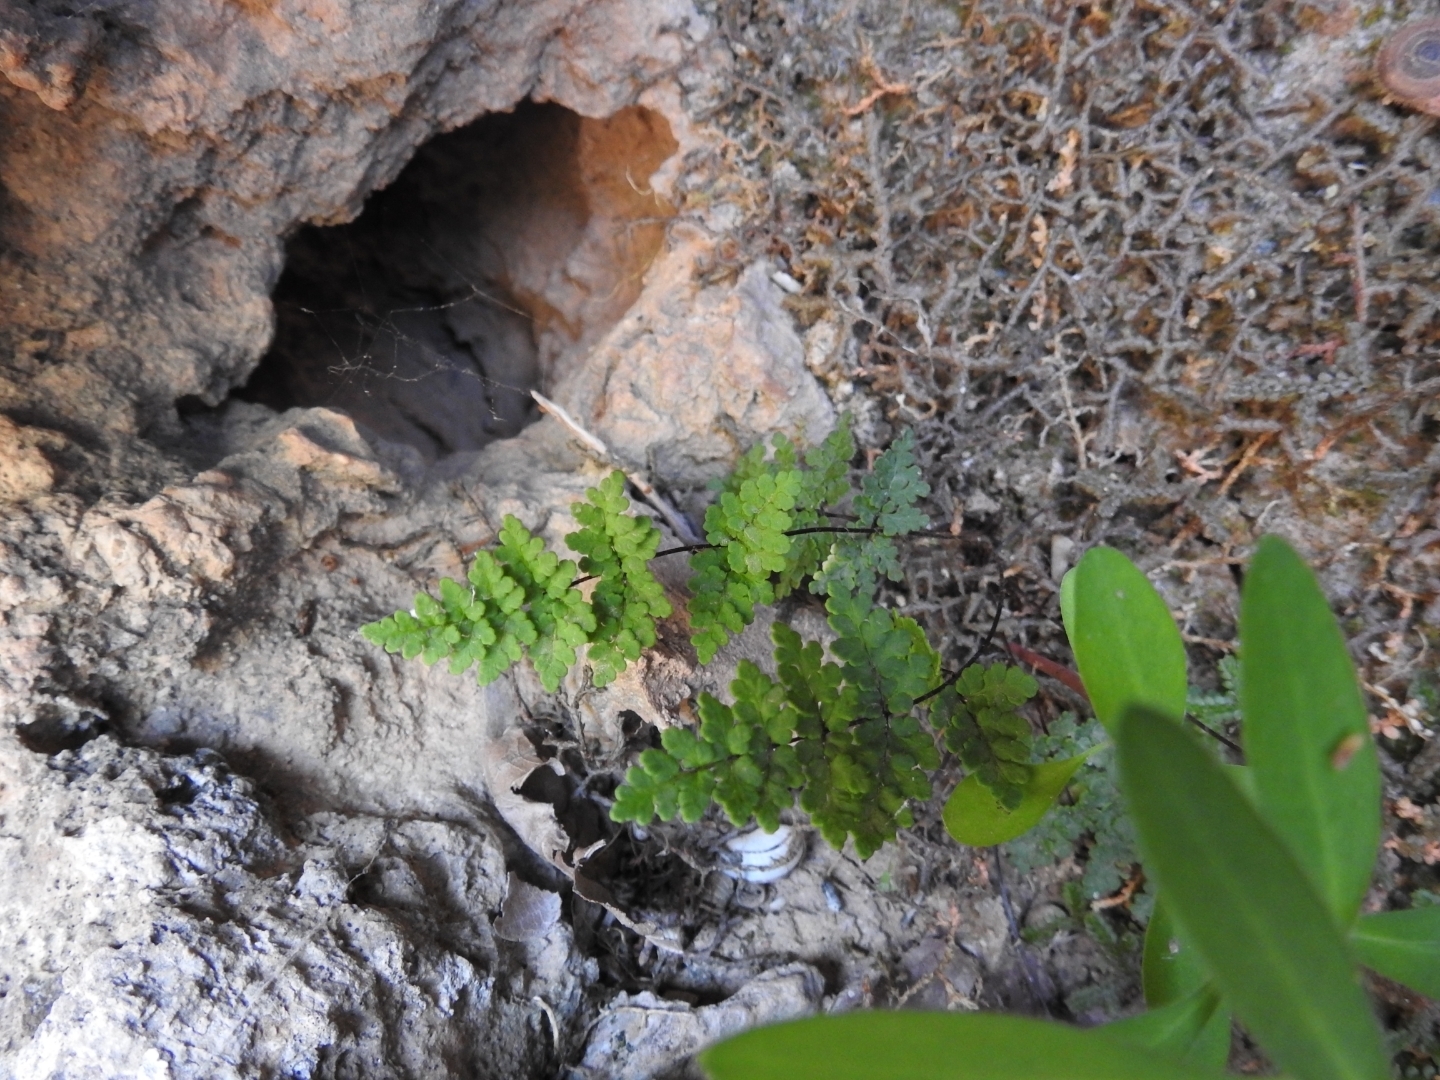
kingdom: Plantae
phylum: Tracheophyta
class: Polypodiopsida
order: Polypodiales
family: Pteridaceae
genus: Oeosporangium
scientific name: Oeosporangium pteridioides
